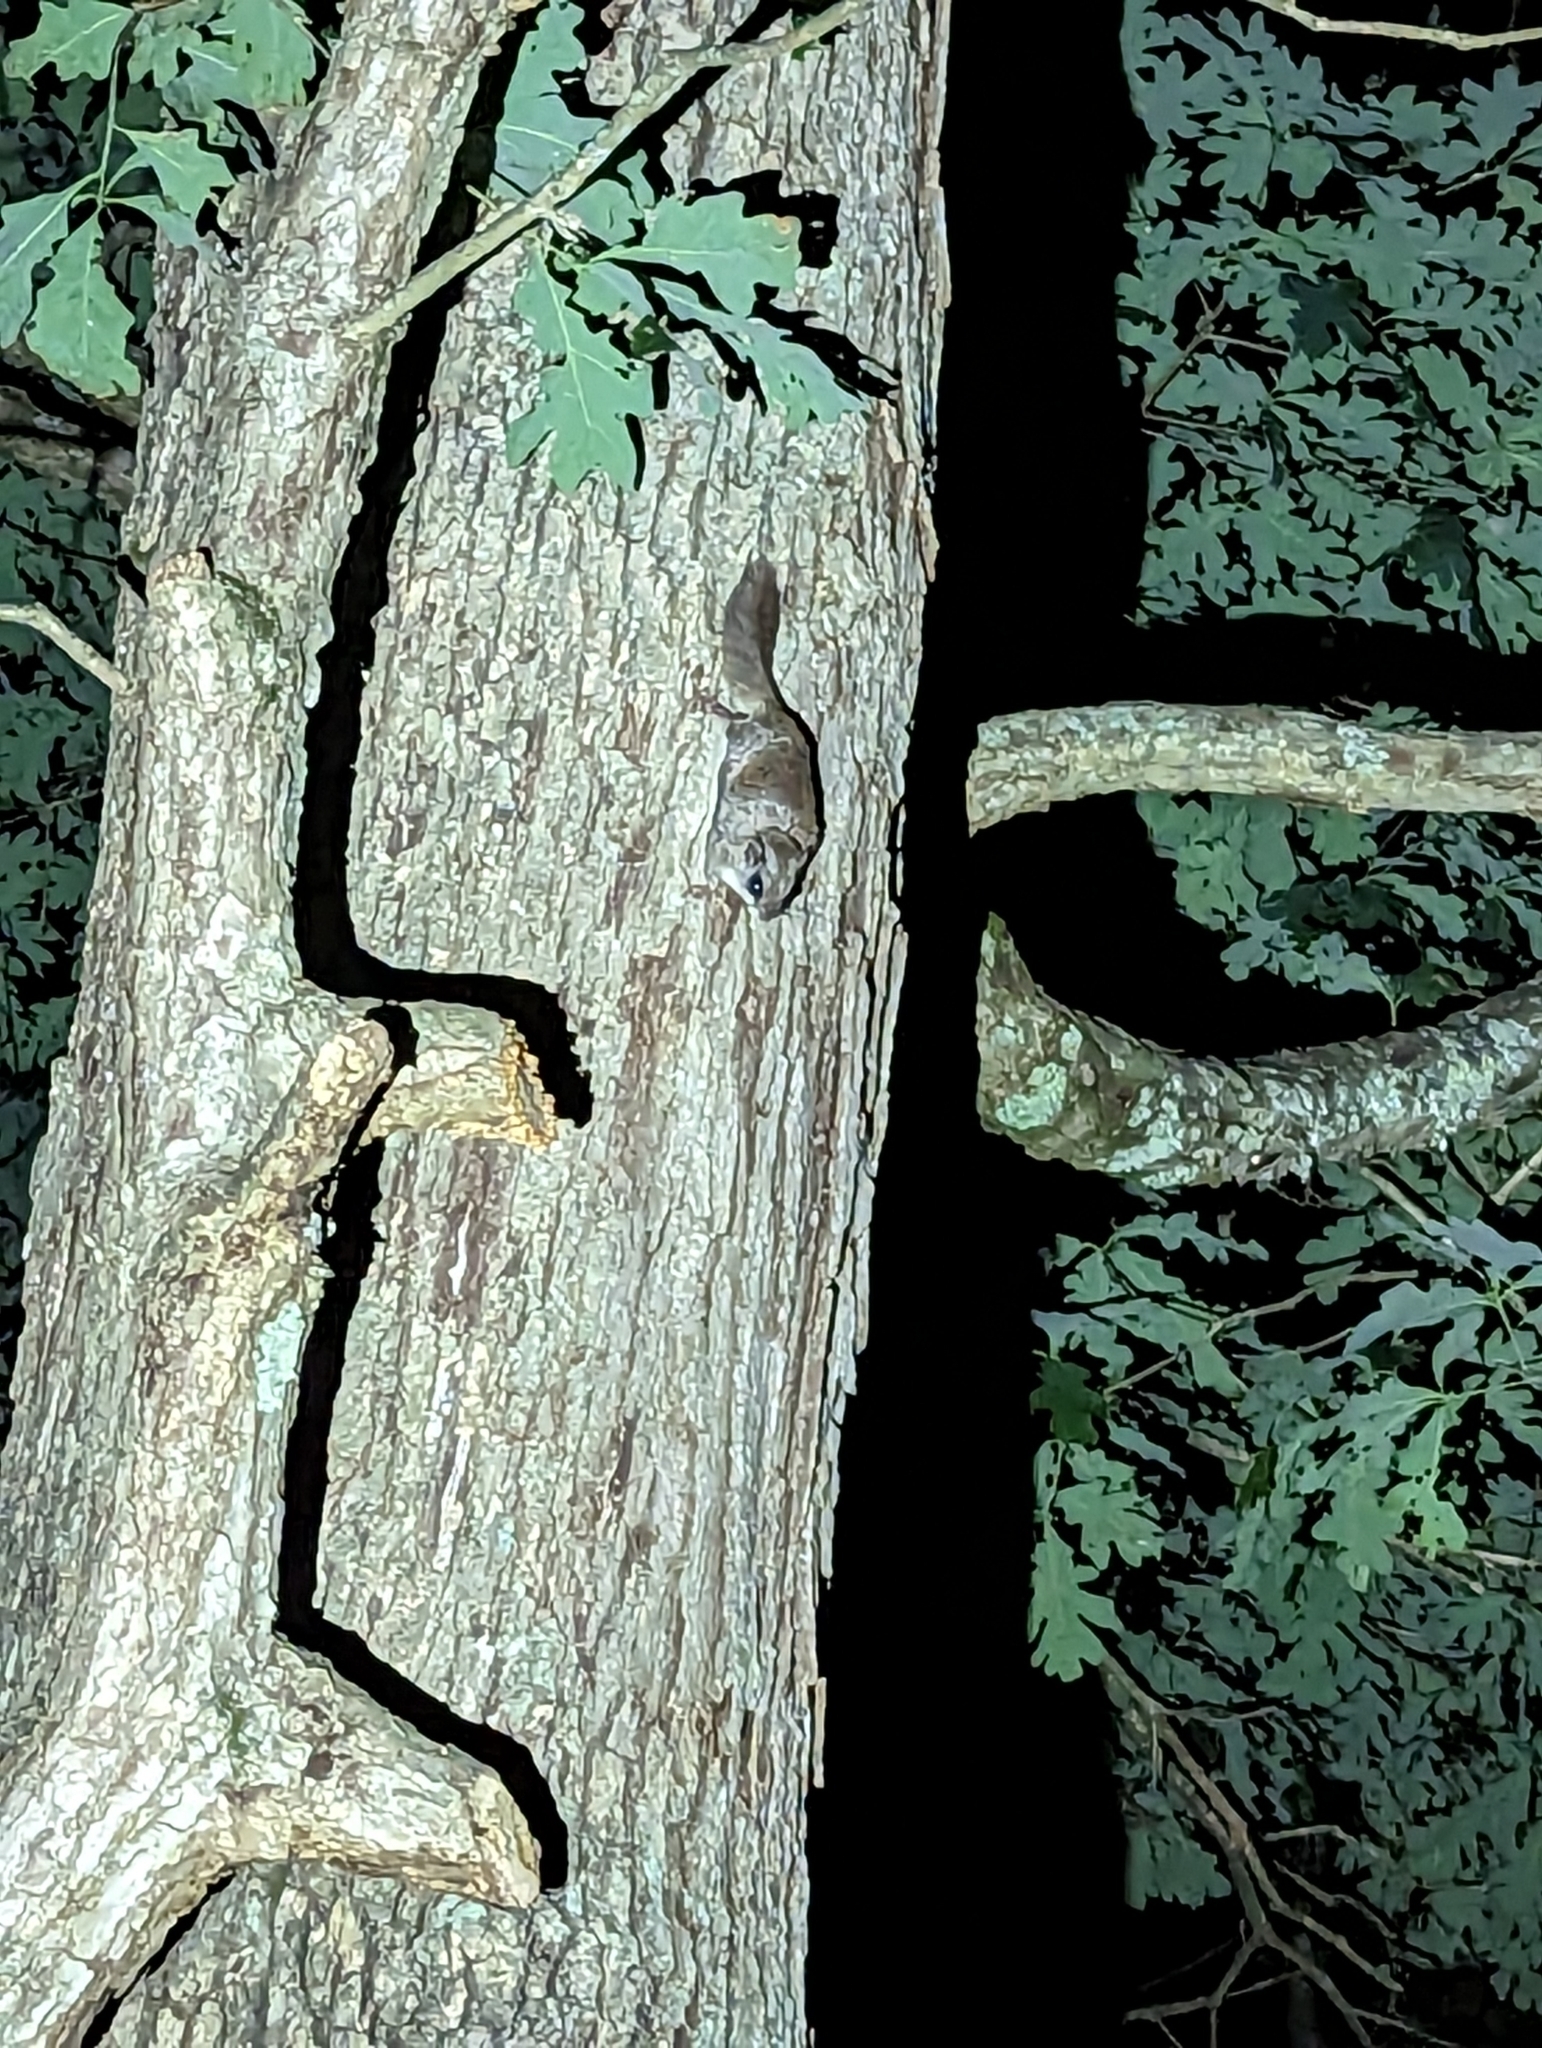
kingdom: Animalia
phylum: Chordata
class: Mammalia
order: Rodentia
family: Sciuridae
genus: Glaucomys
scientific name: Glaucomys volans
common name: Southern flying squirrel
